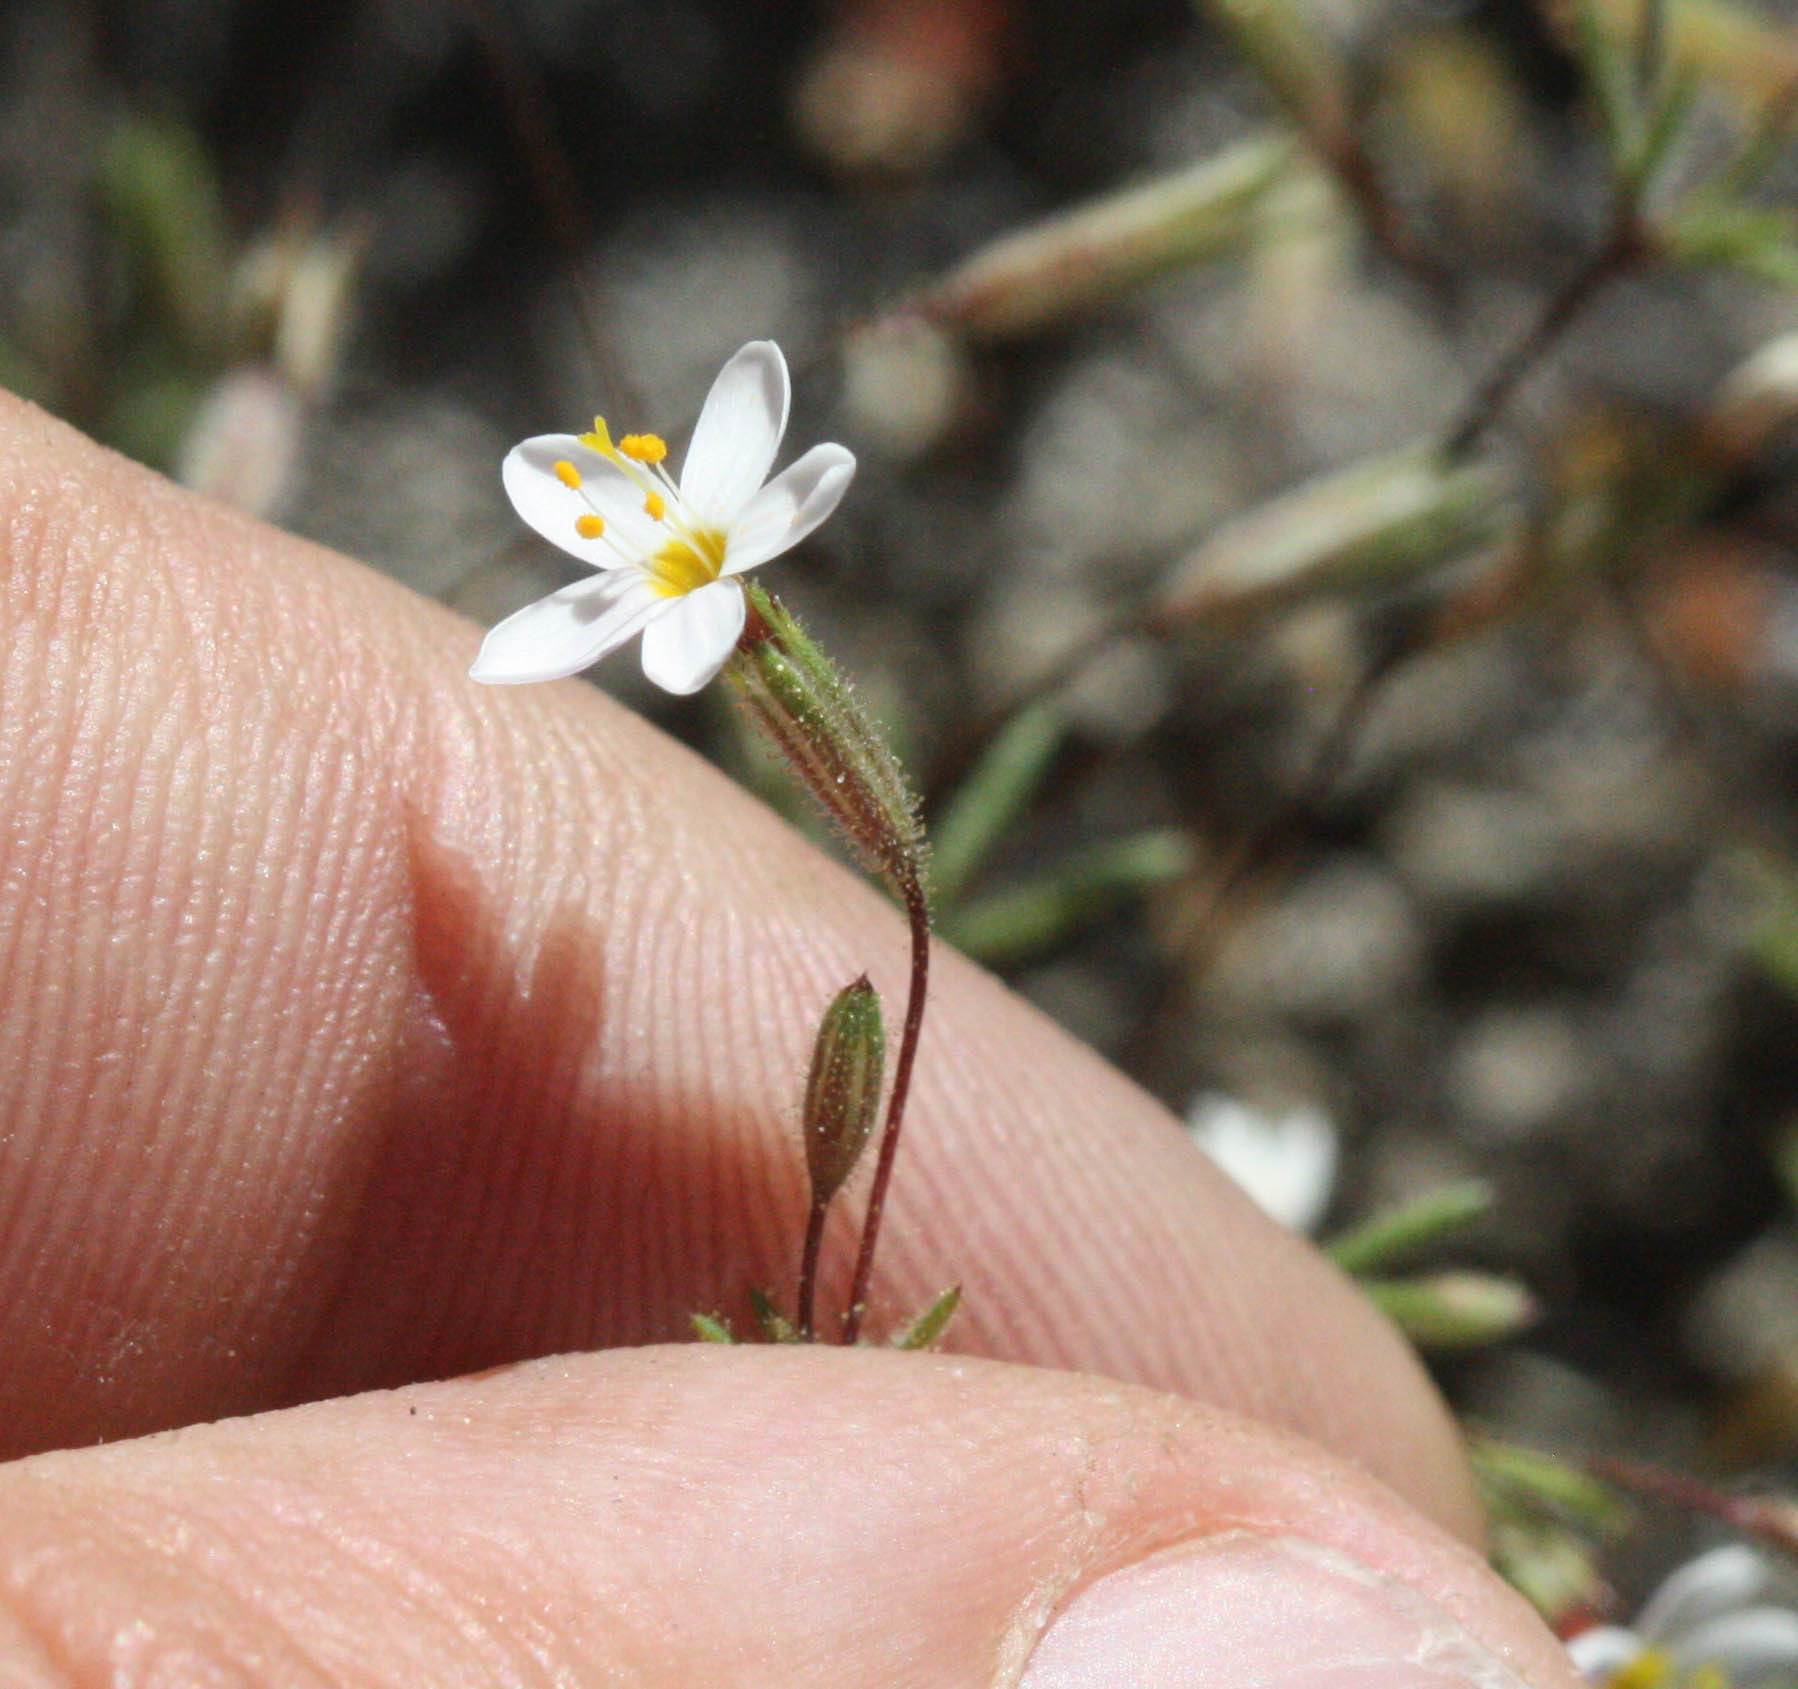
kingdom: Plantae
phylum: Tracheophyta
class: Magnoliopsida
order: Ericales
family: Polemoniaceae
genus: Leptosiphon
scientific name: Leptosiphon bolanderi
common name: Bolander's linanthus
